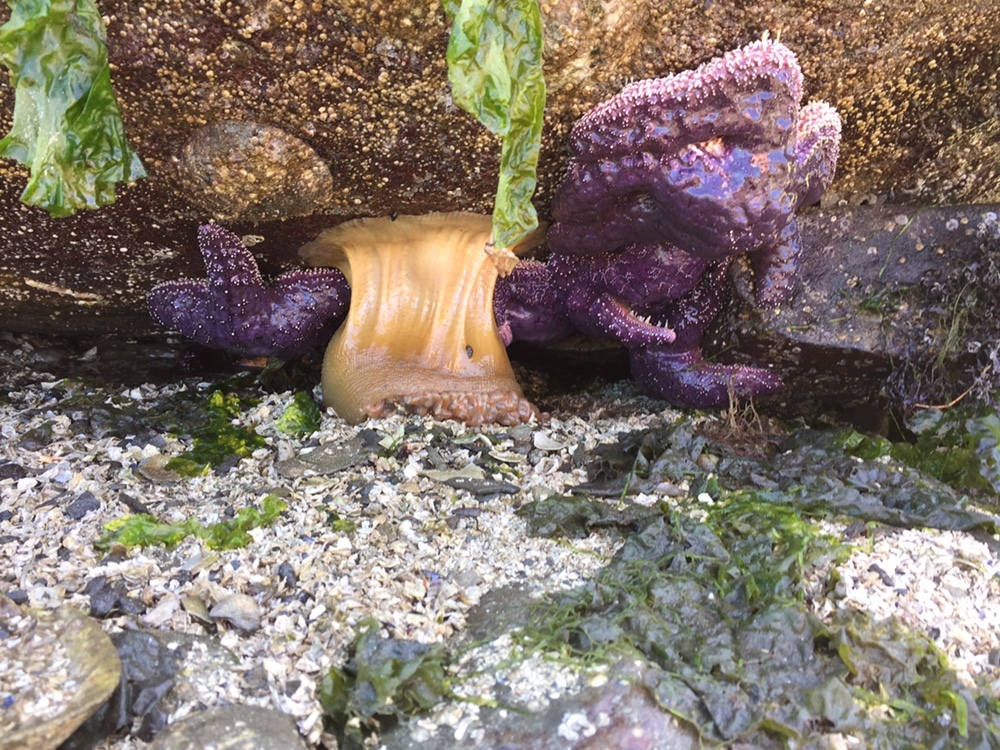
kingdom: Animalia
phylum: Cnidaria
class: Anthozoa
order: Actiniaria
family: Actiniidae
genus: Urticina
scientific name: Urticina grebelnyi
